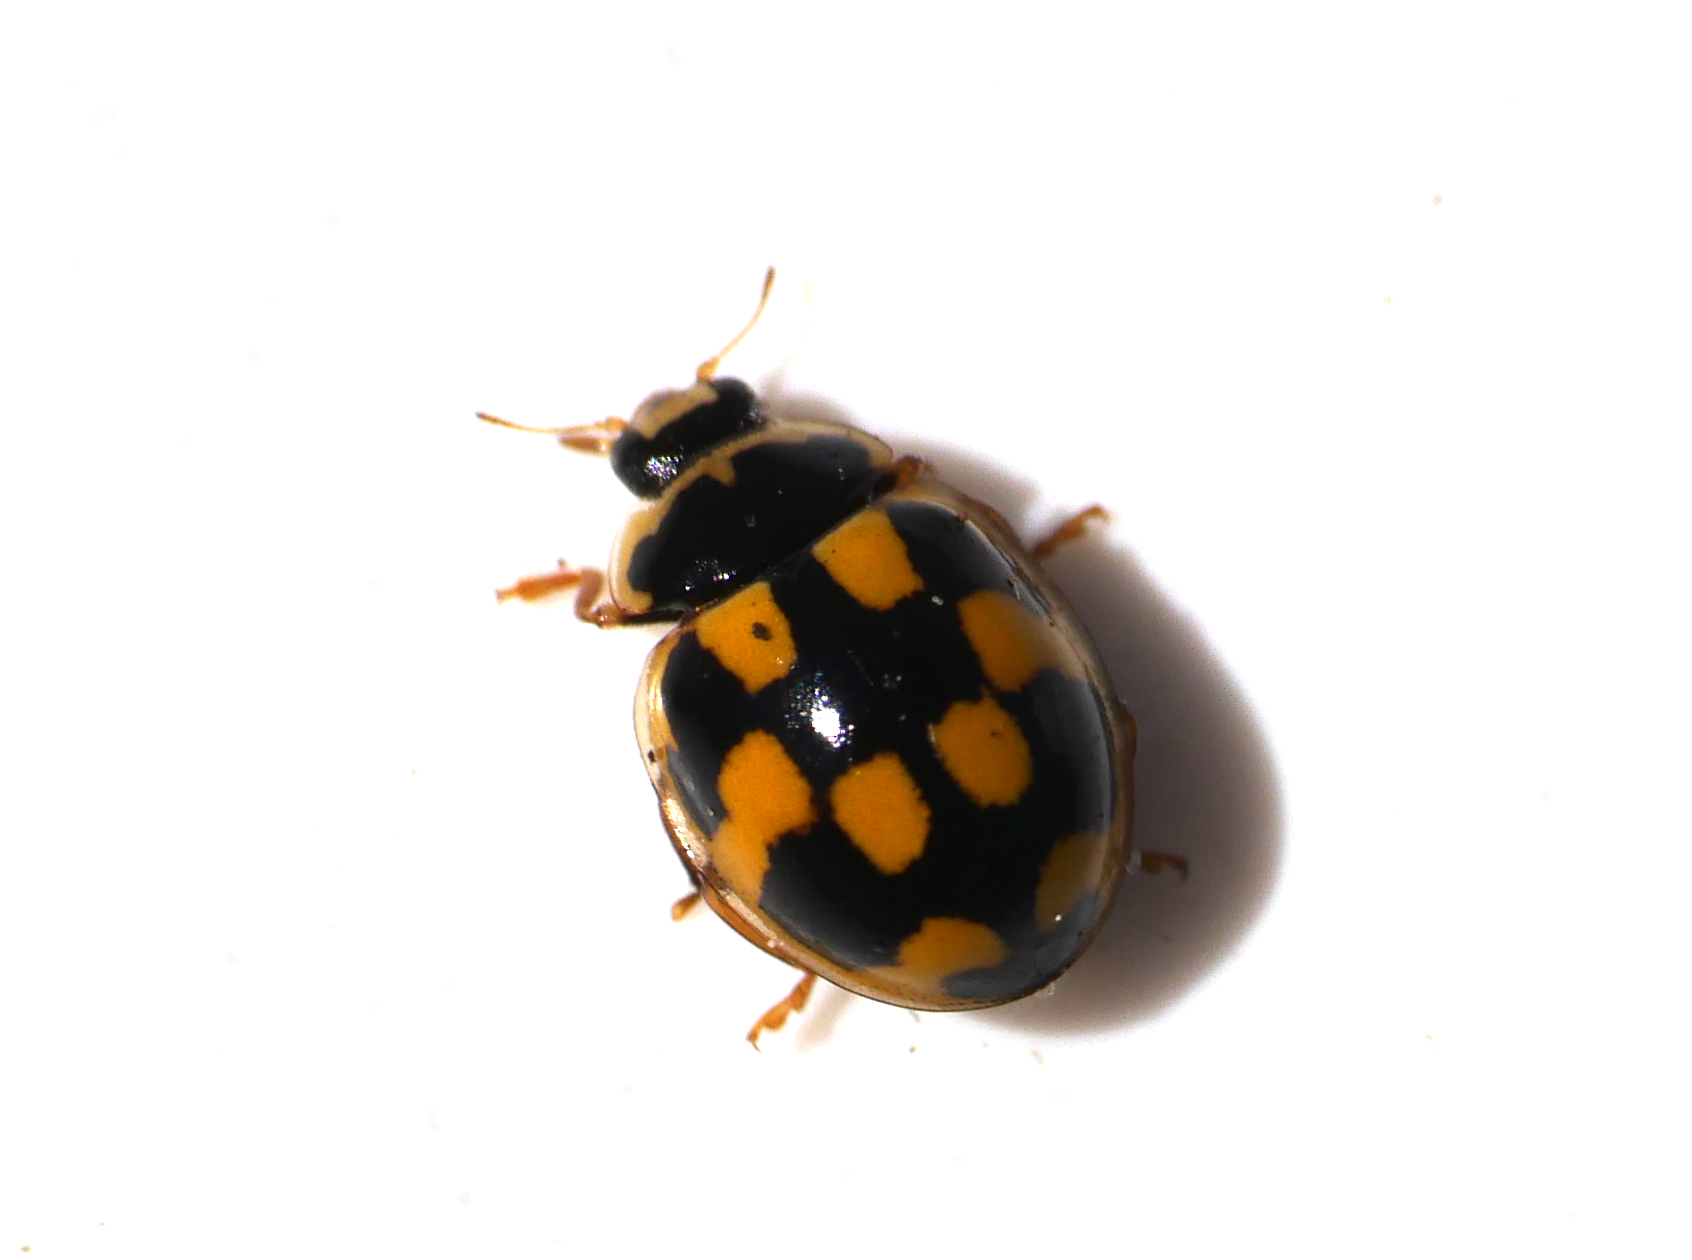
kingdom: Animalia
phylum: Arthropoda
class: Insecta
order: Coleoptera
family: Coccinellidae
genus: Propylaea
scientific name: Propylaea quatuordecimpunctata
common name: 14-spotted ladybird beetle
